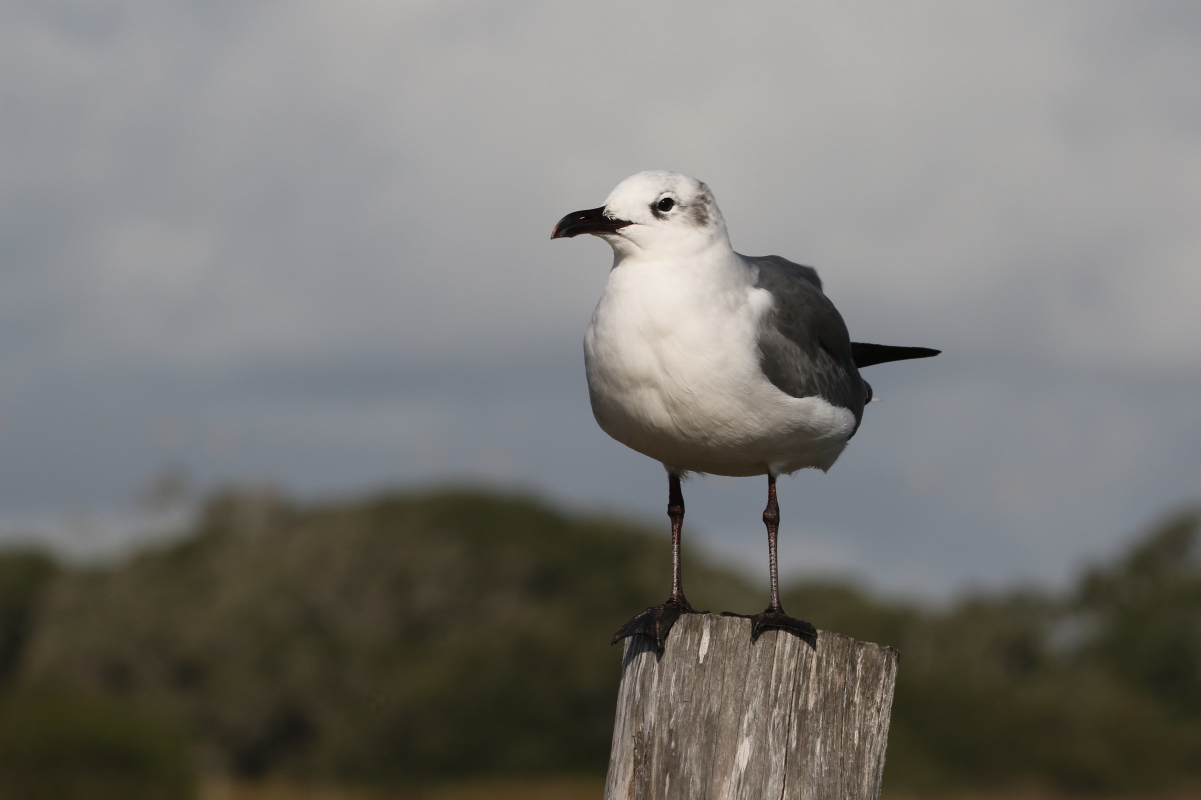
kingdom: Animalia
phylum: Chordata
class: Aves
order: Charadriiformes
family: Laridae
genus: Leucophaeus
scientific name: Leucophaeus atricilla
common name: Laughing gull
